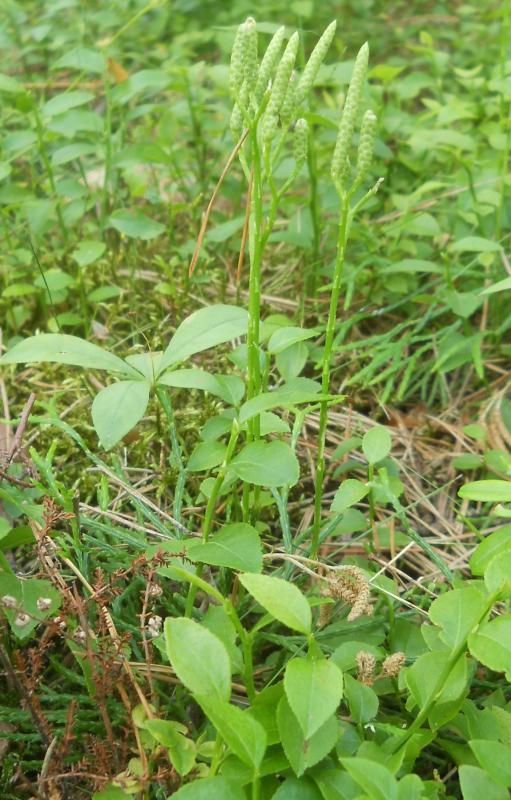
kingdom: Plantae
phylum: Tracheophyta
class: Lycopodiopsida
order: Lycopodiales
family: Lycopodiaceae
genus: Diphasiastrum
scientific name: Diphasiastrum complanatum
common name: Northern running-pine
